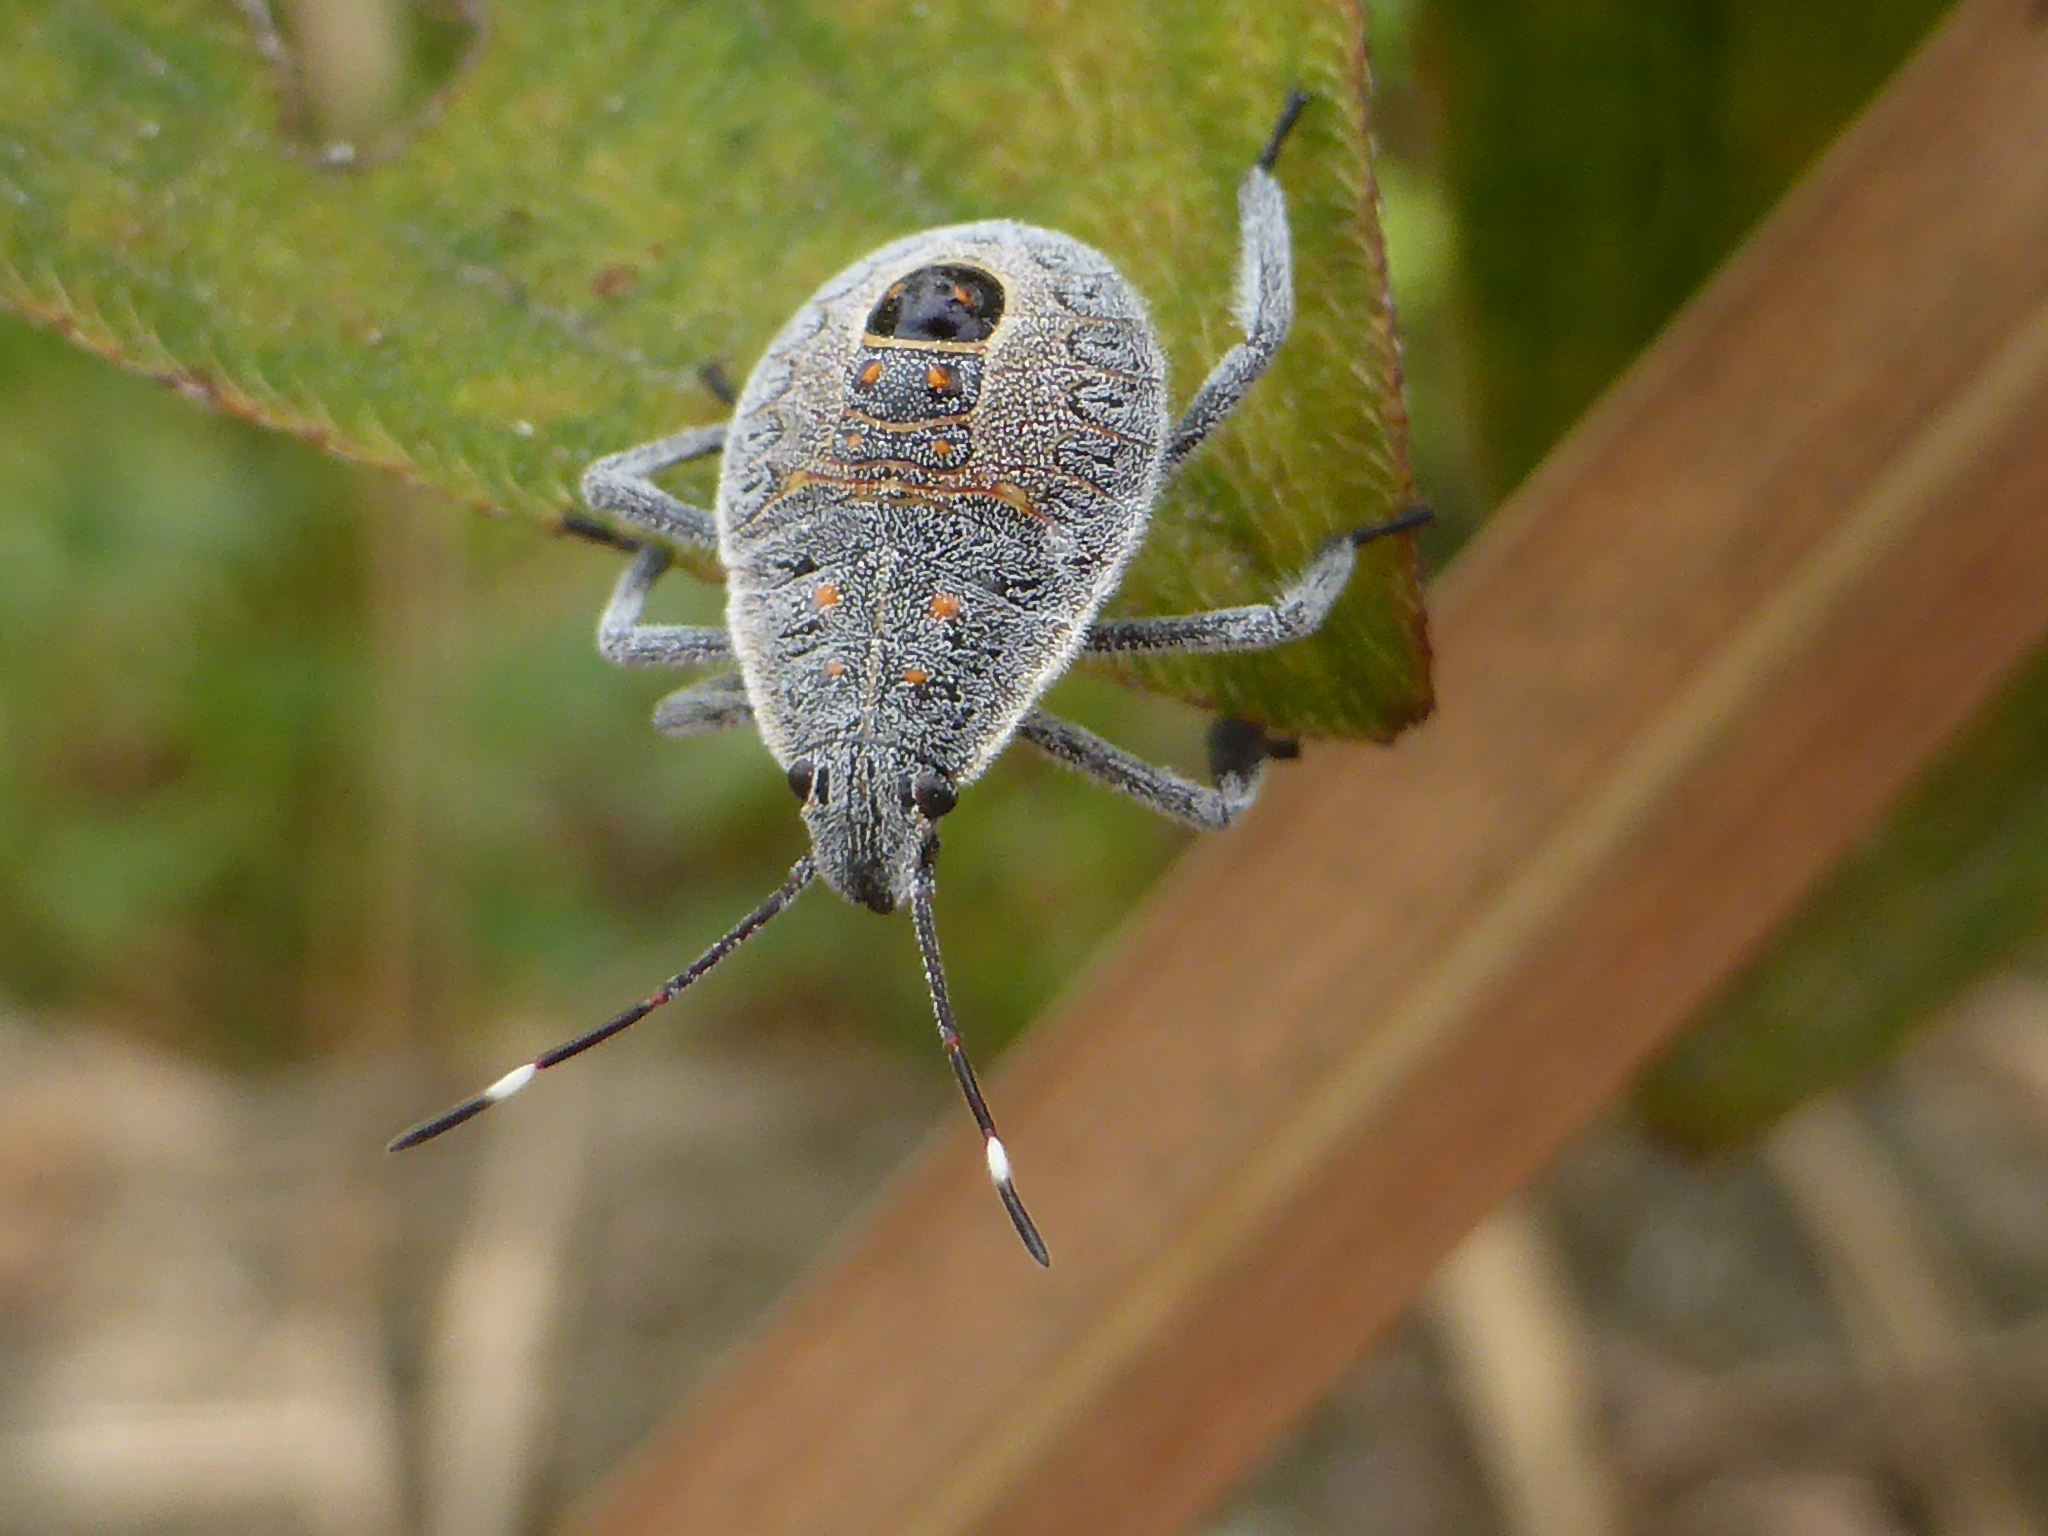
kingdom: Animalia
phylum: Arthropoda
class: Insecta
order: Hemiptera
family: Pentatomidae
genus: Erthesina
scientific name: Erthesina fullo
